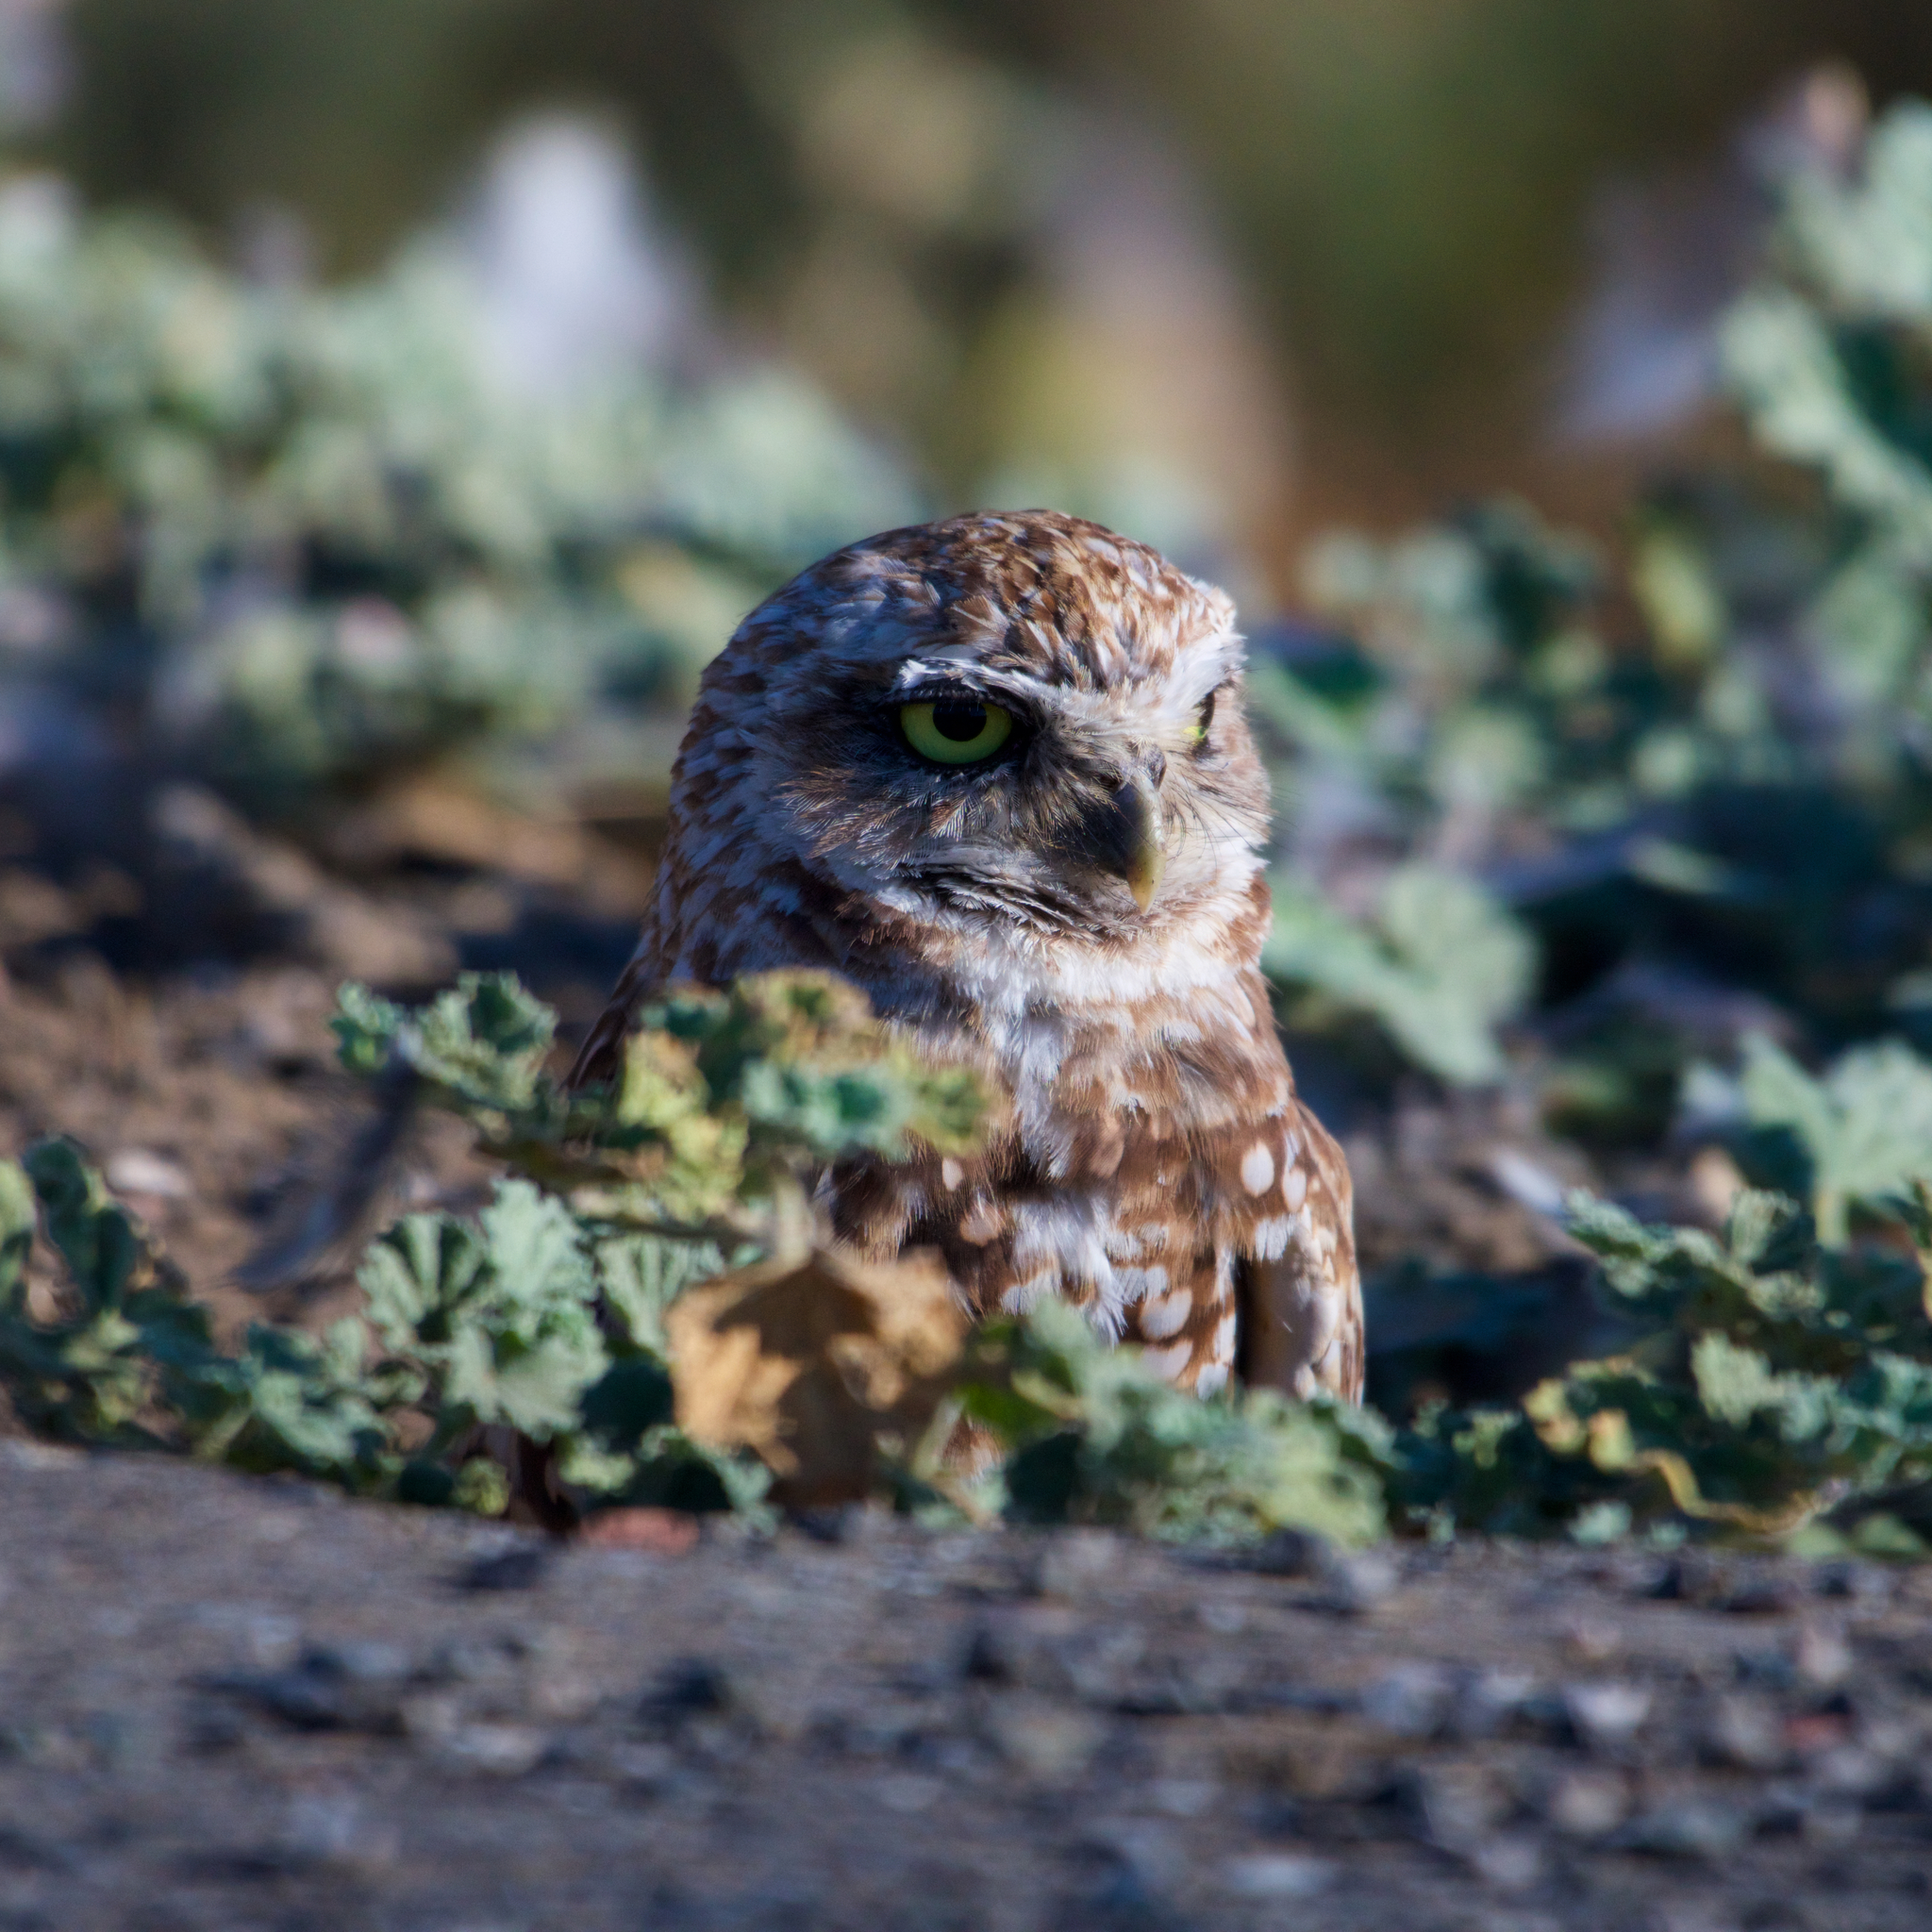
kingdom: Animalia
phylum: Chordata
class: Aves
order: Strigiformes
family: Strigidae
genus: Athene
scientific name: Athene cunicularia
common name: Burrowing owl
